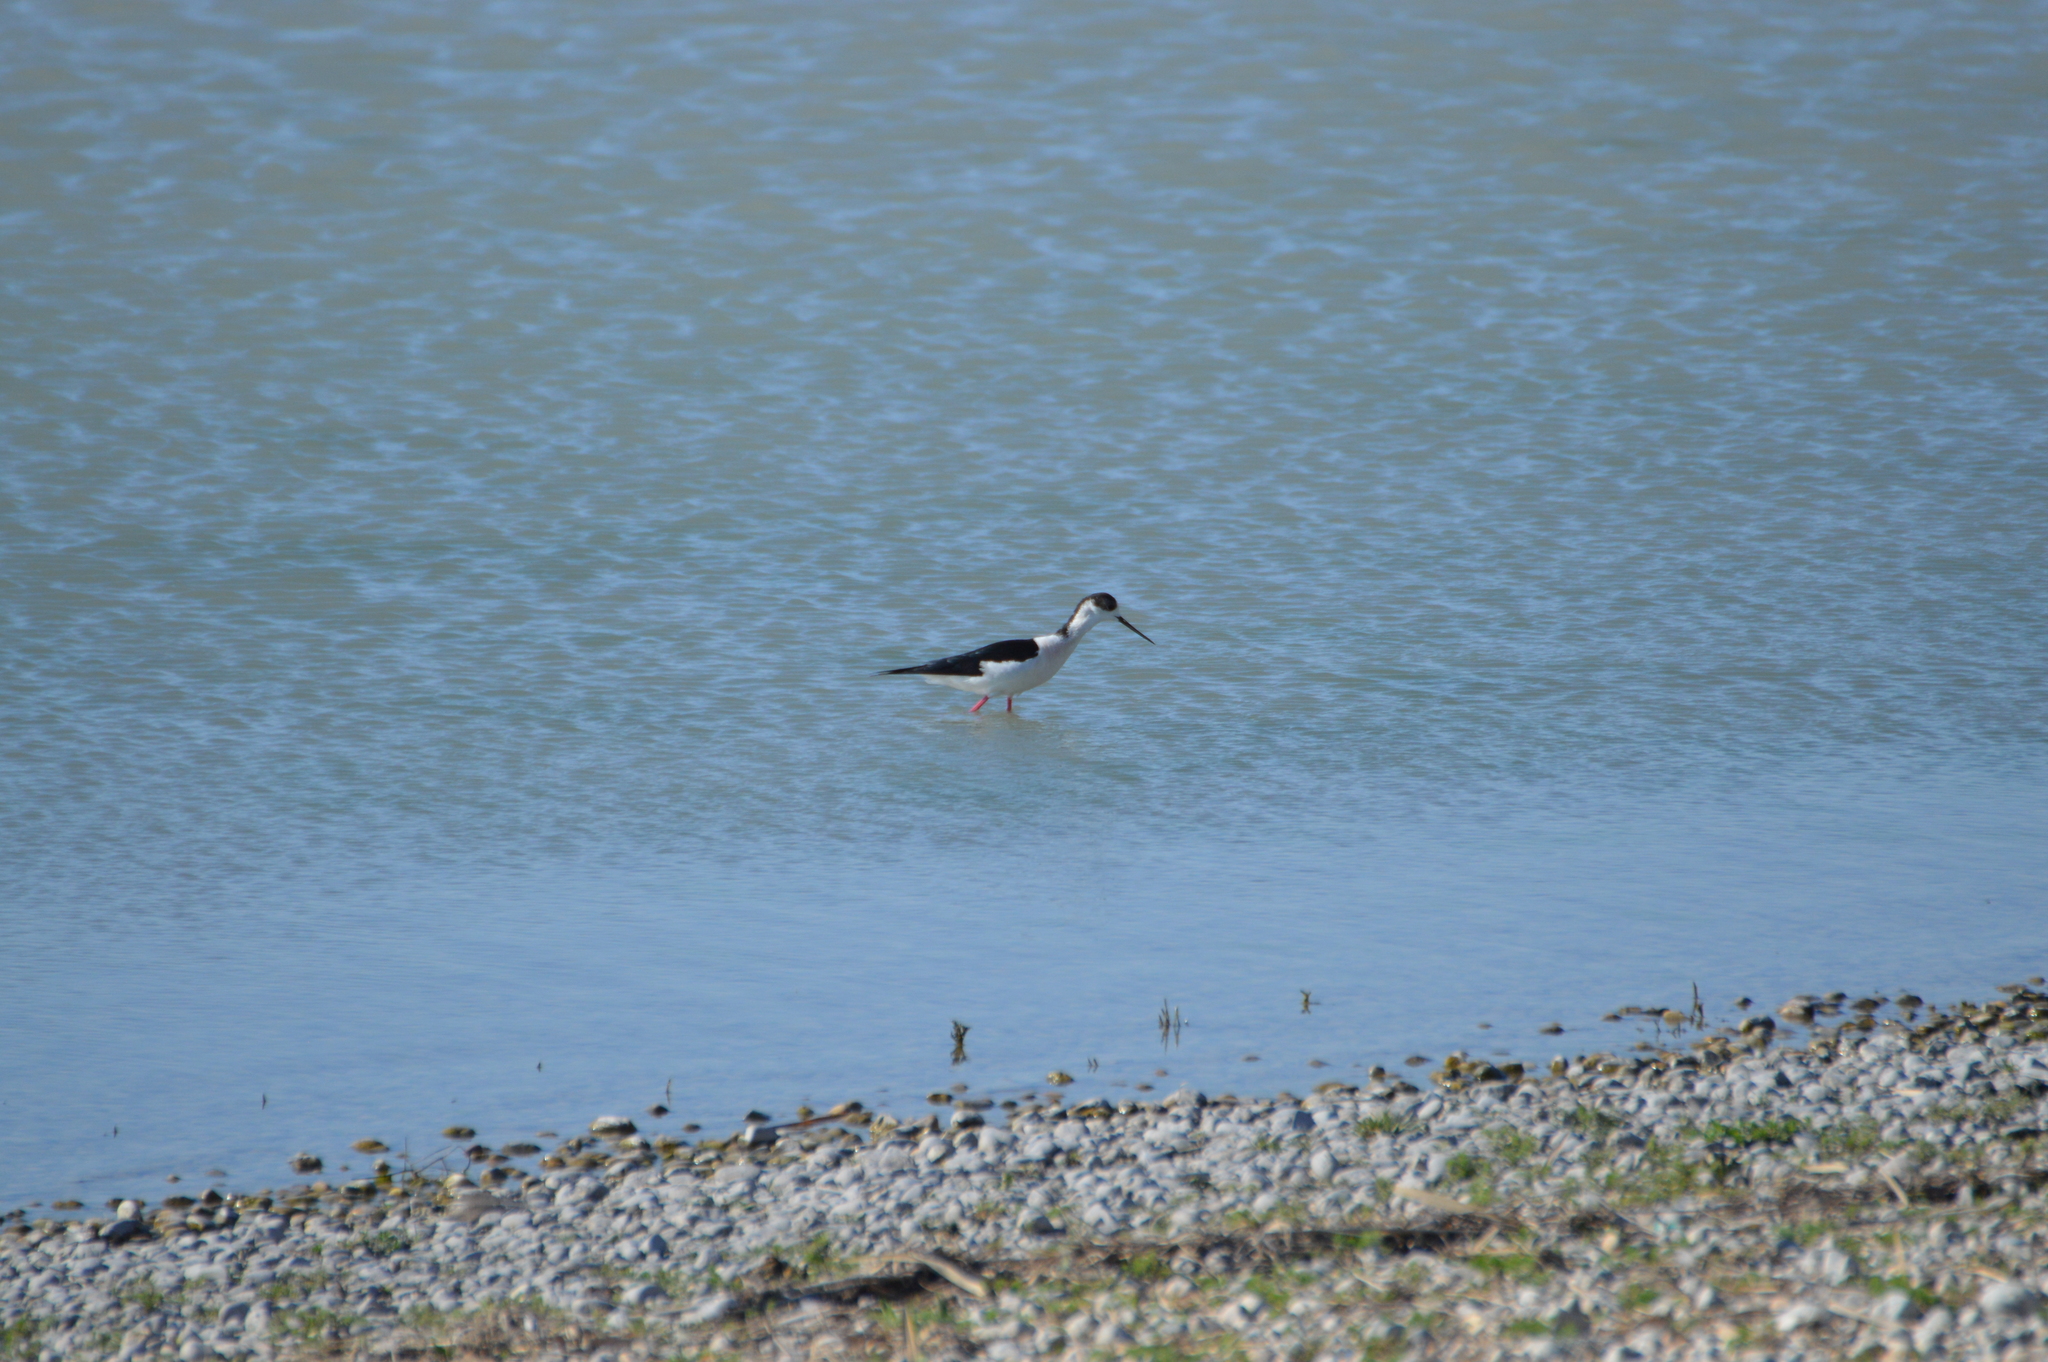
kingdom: Animalia
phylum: Chordata
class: Aves
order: Charadriiformes
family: Recurvirostridae
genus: Himantopus
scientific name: Himantopus himantopus
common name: Black-winged stilt
